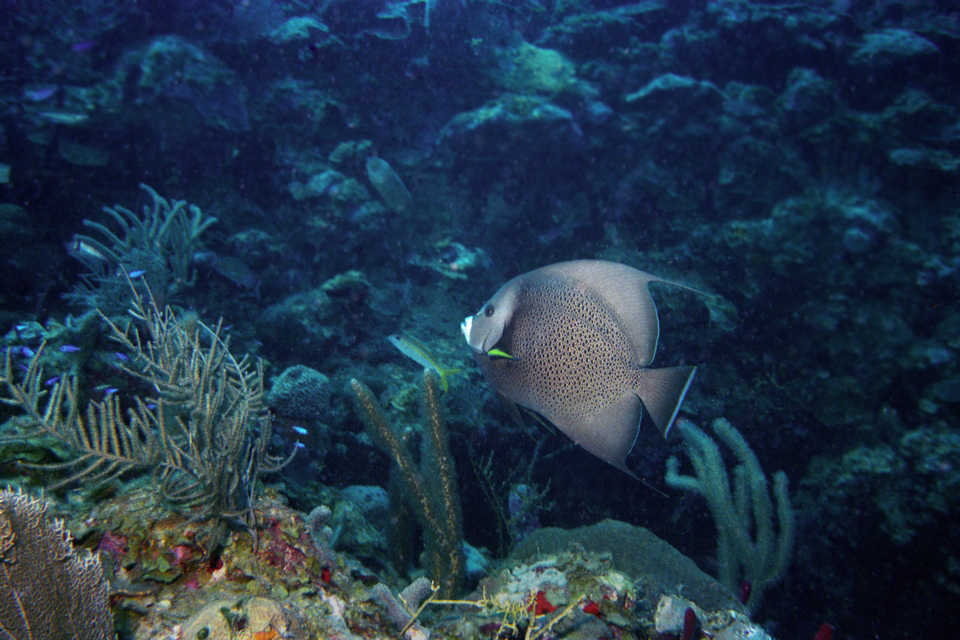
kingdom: Animalia
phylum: Chordata
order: Perciformes
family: Pomacanthidae
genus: Pomacanthus
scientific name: Pomacanthus arcuatus
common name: Gray angelfish
